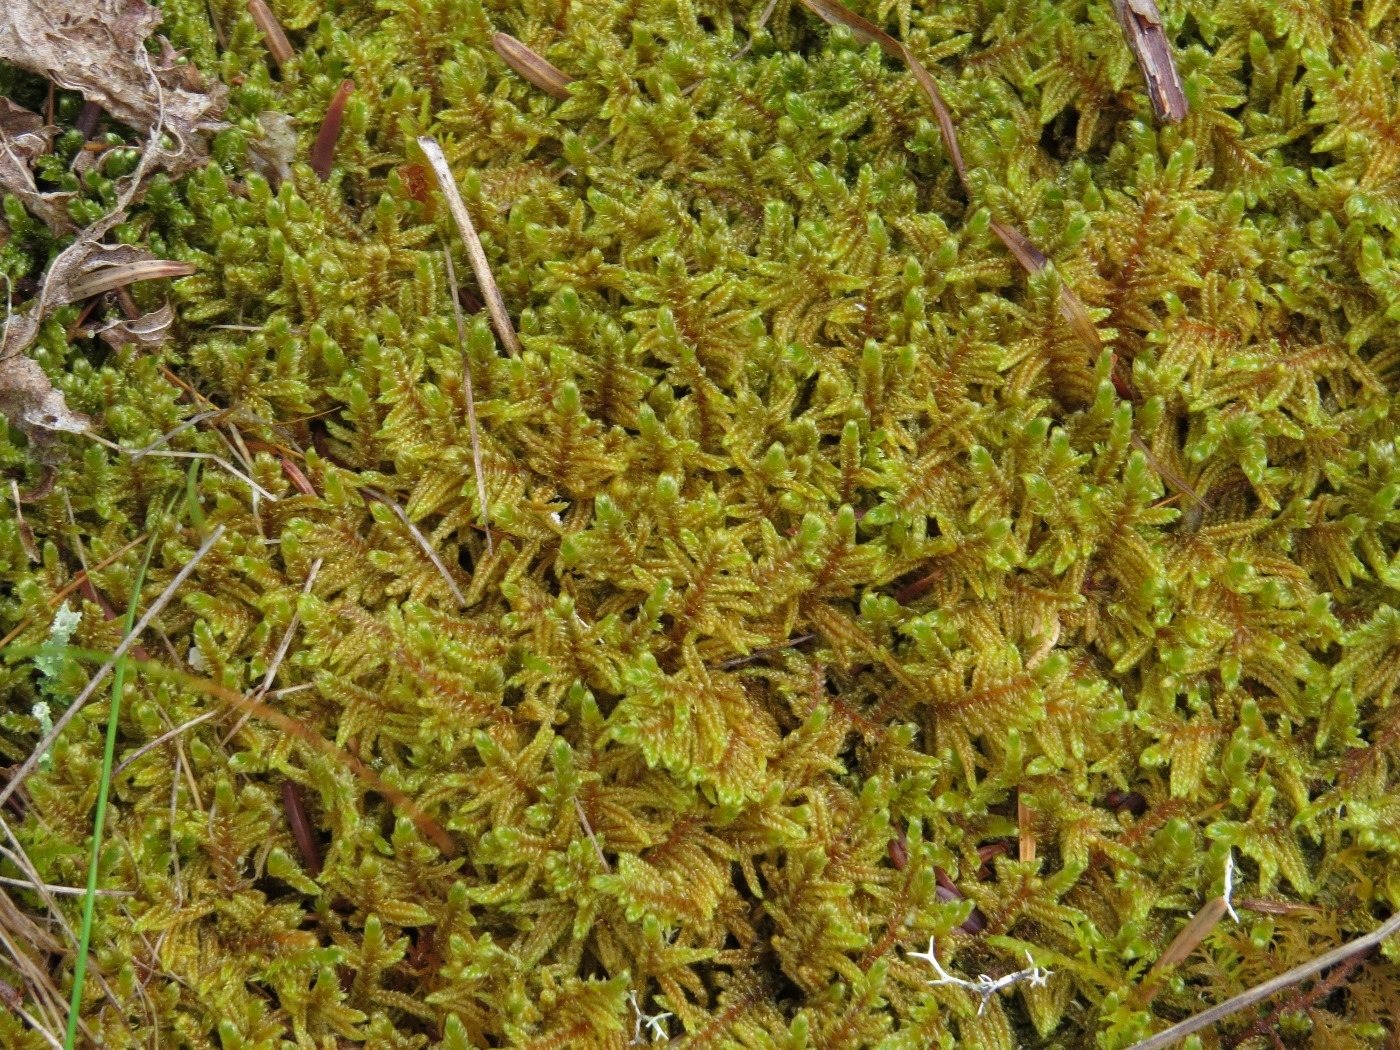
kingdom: Plantae
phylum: Bryophyta
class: Bryopsida
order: Hypnales
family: Callicladiaceae
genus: Callicladium
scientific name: Callicladium imponens
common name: Brocade moss
